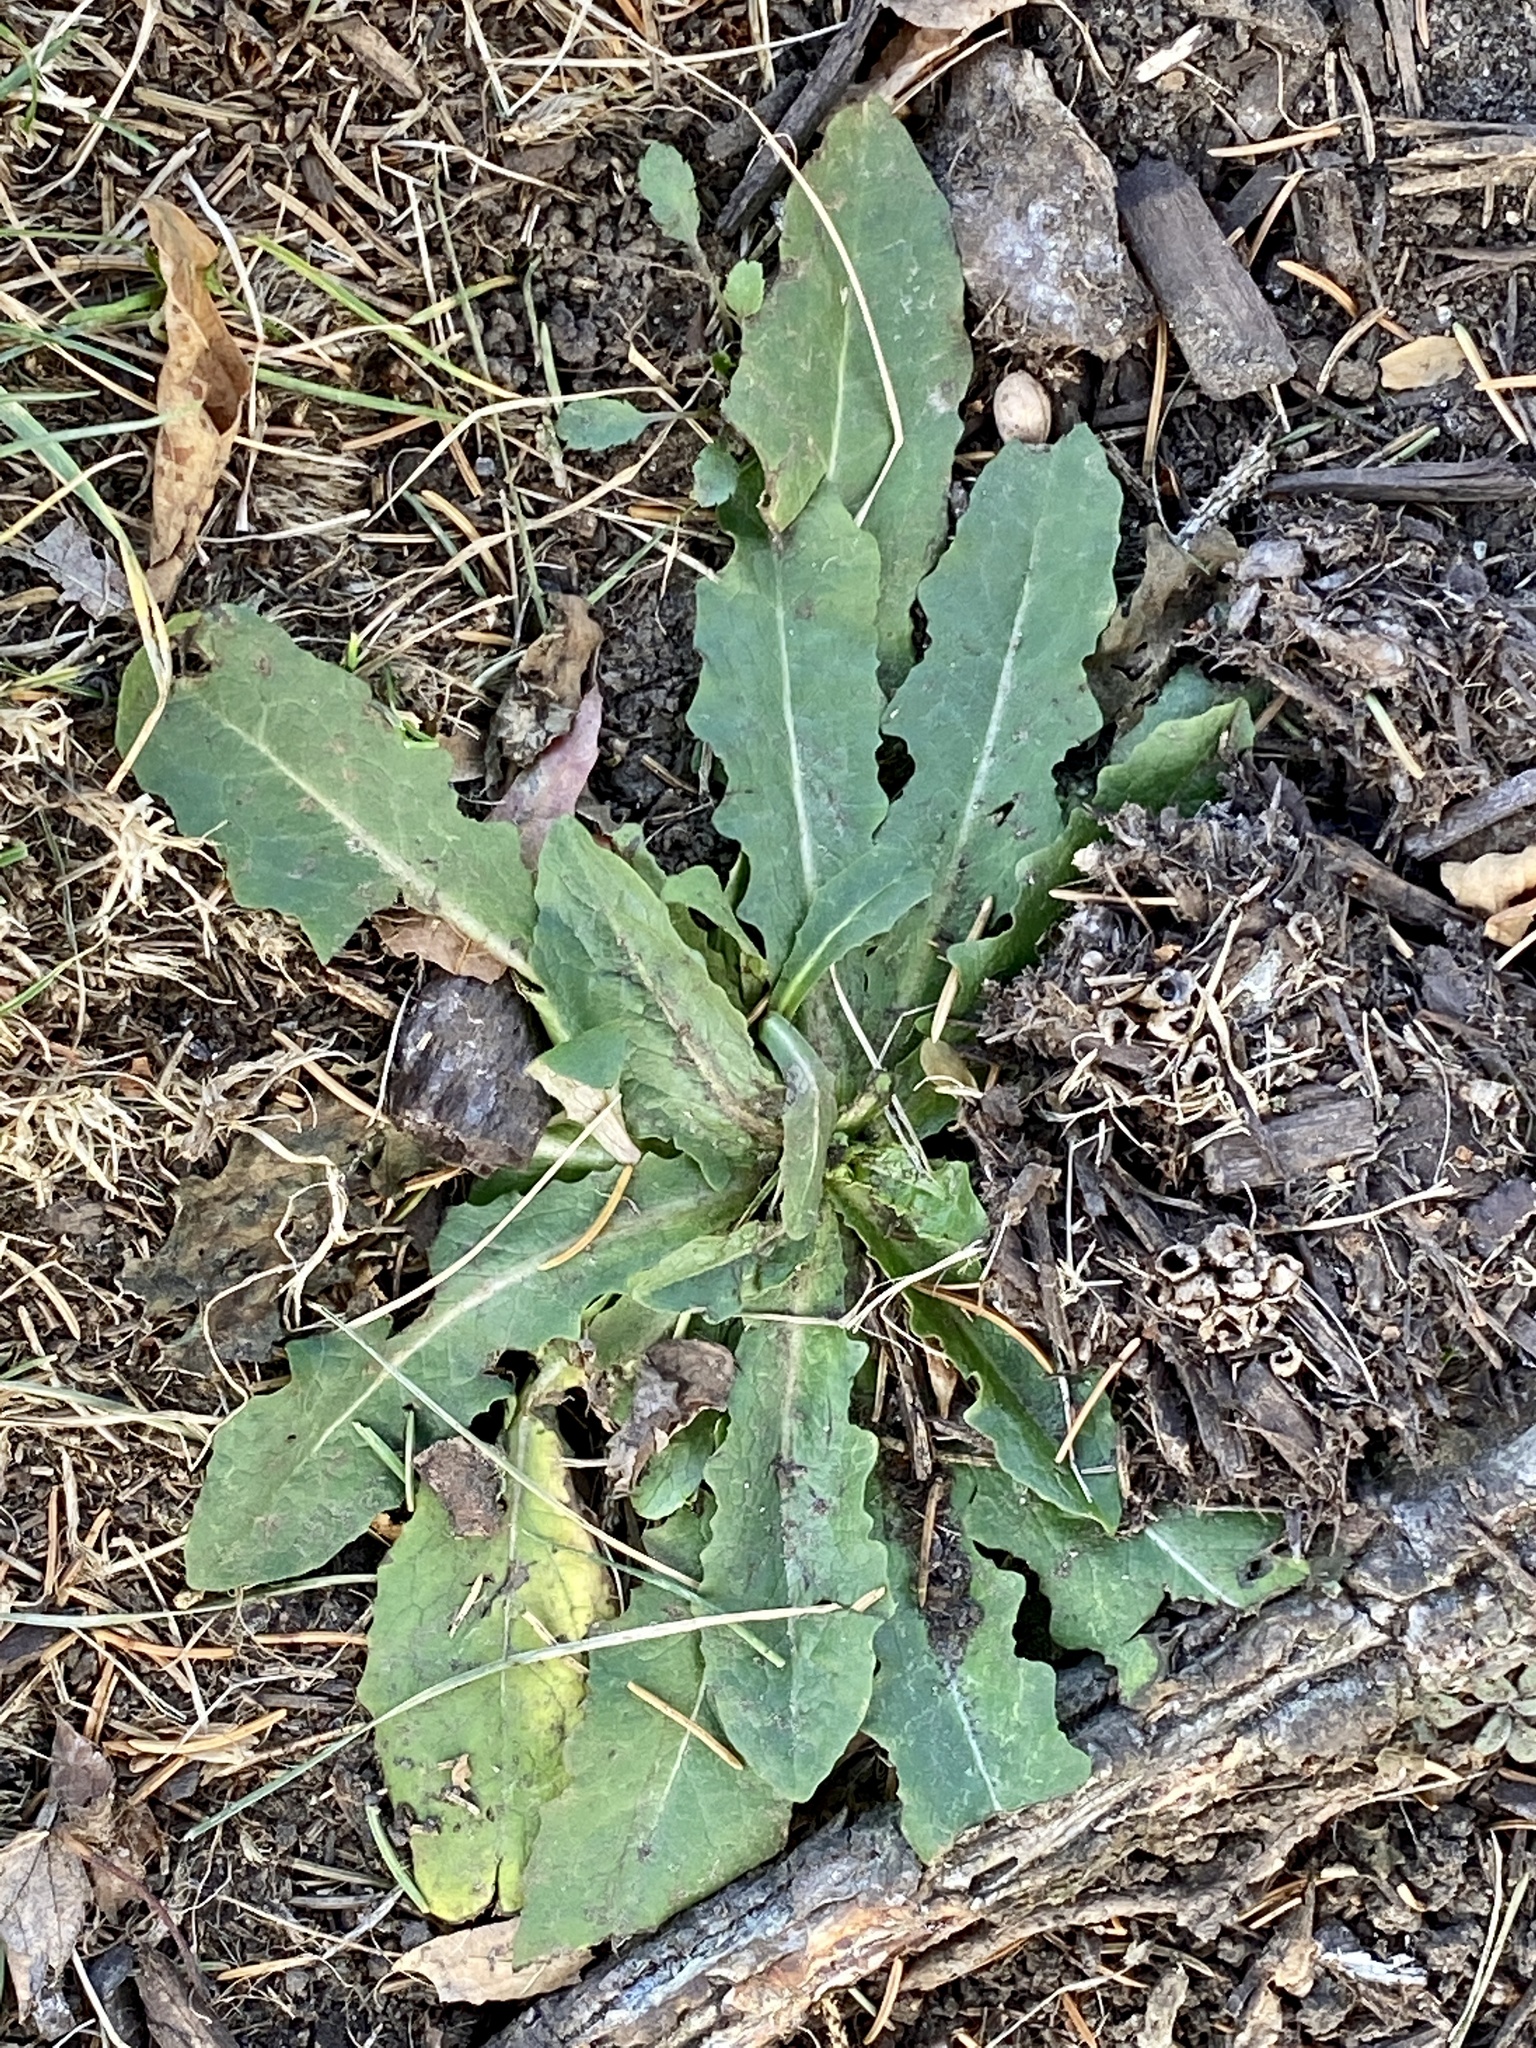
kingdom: Plantae
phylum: Tracheophyta
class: Magnoliopsida
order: Asterales
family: Asteraceae
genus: Hypochaeris
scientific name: Hypochaeris radicata
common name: Flatweed
